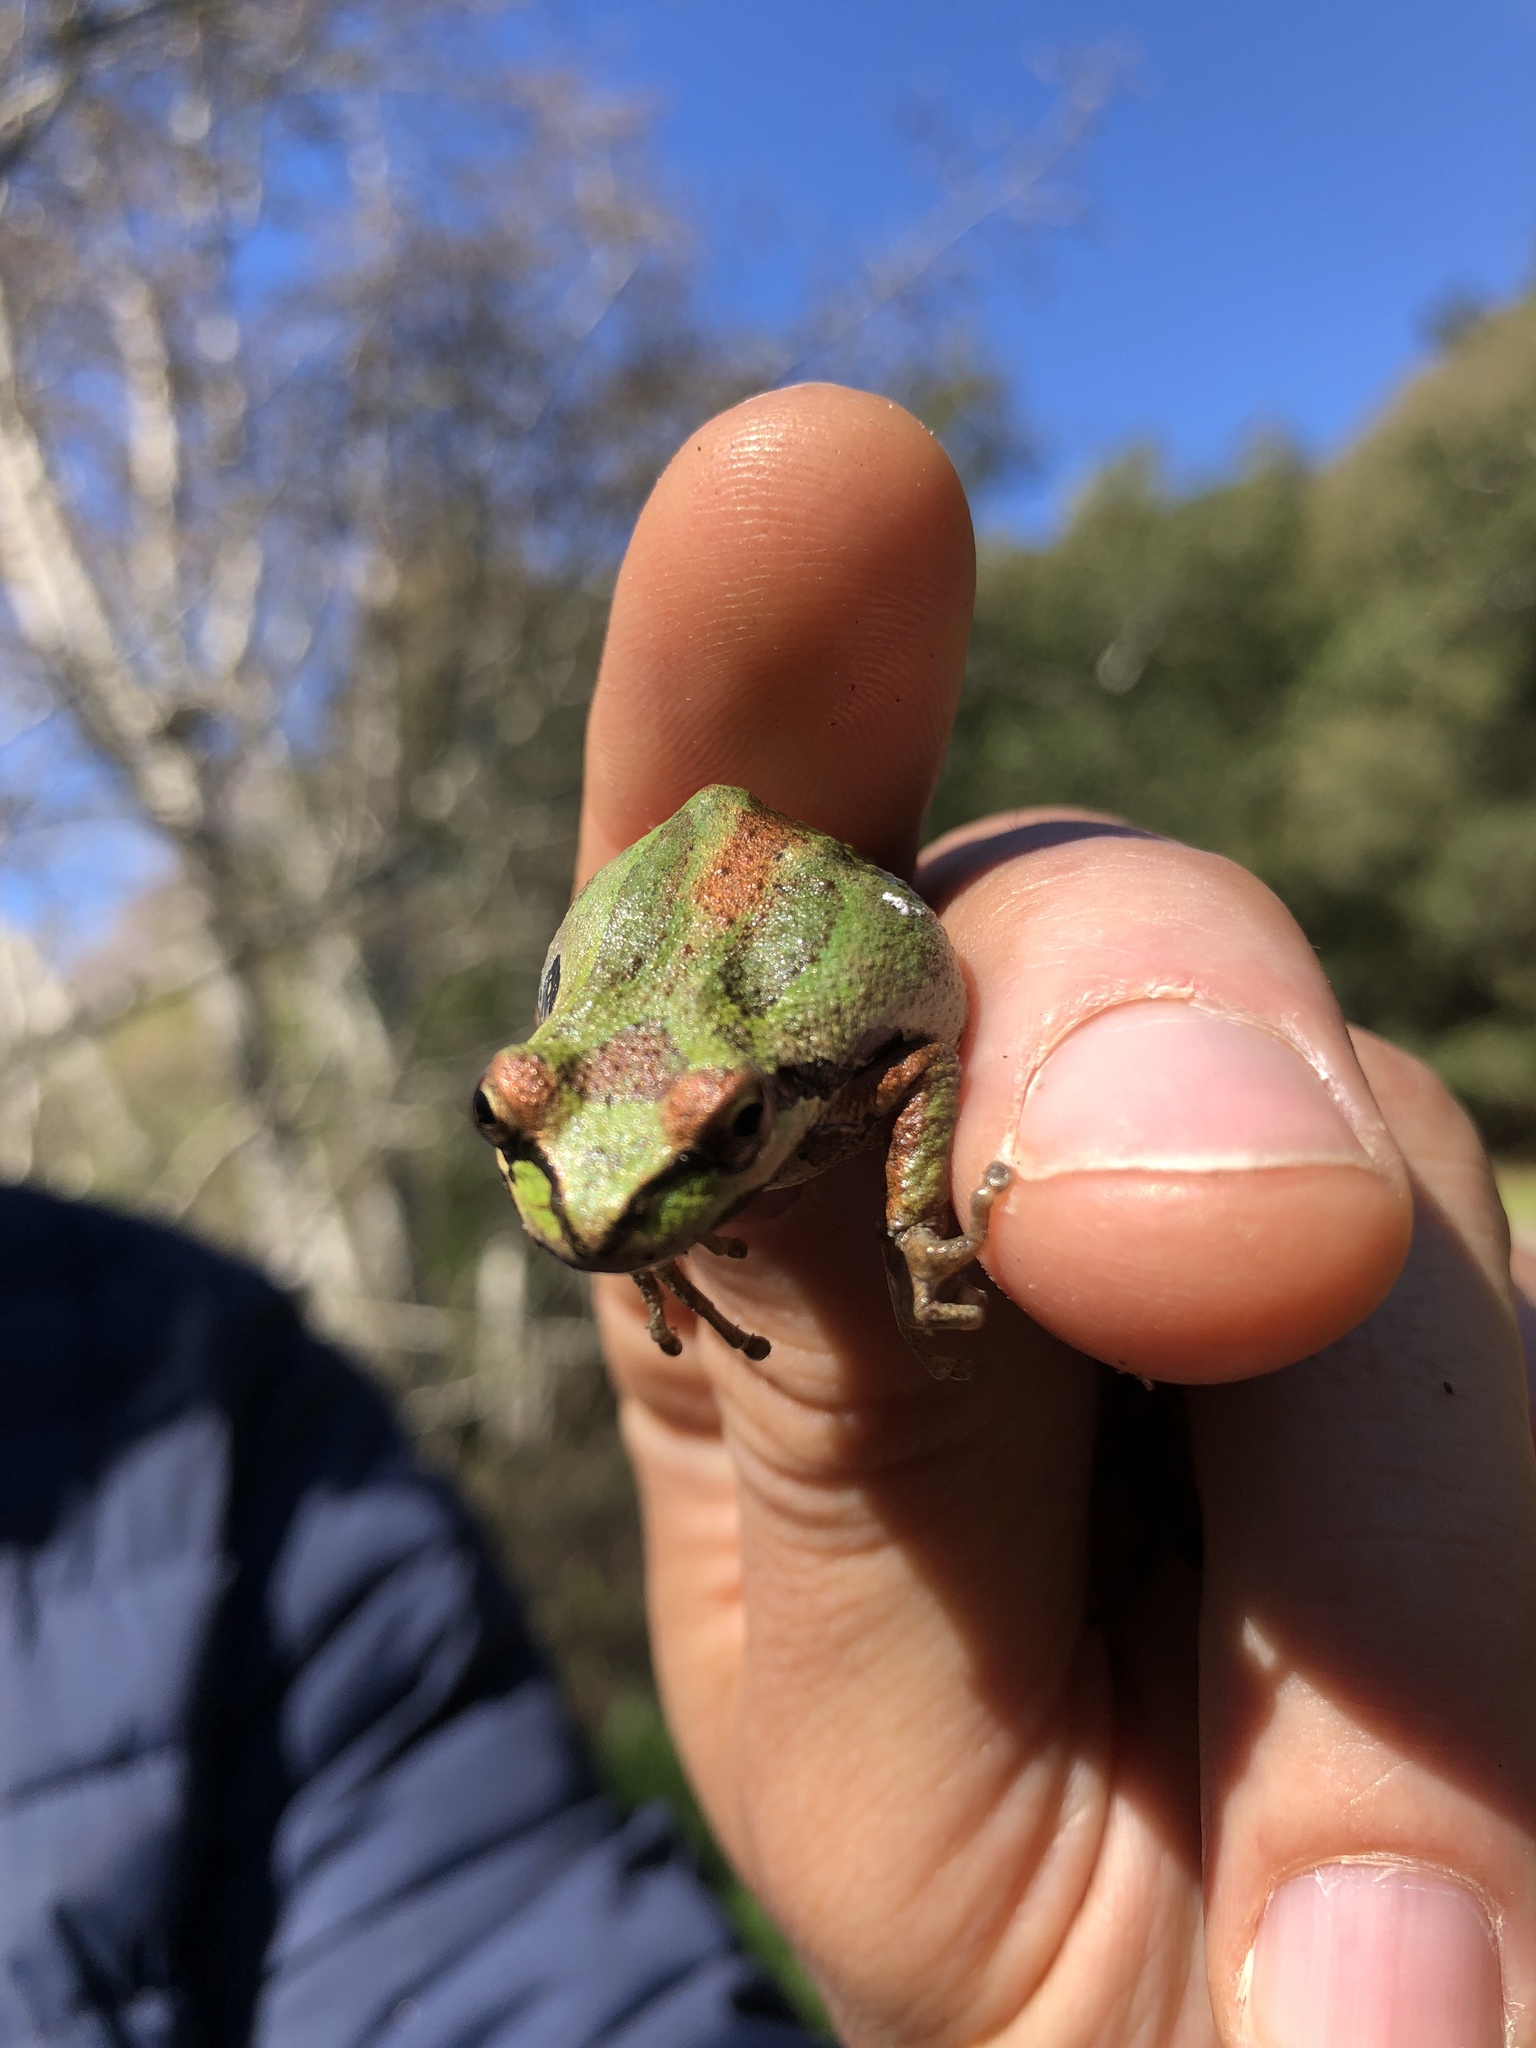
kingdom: Animalia
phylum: Chordata
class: Amphibia
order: Anura
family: Hylidae
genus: Pseudacris
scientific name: Pseudacris regilla
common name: Pacific chorus frog
